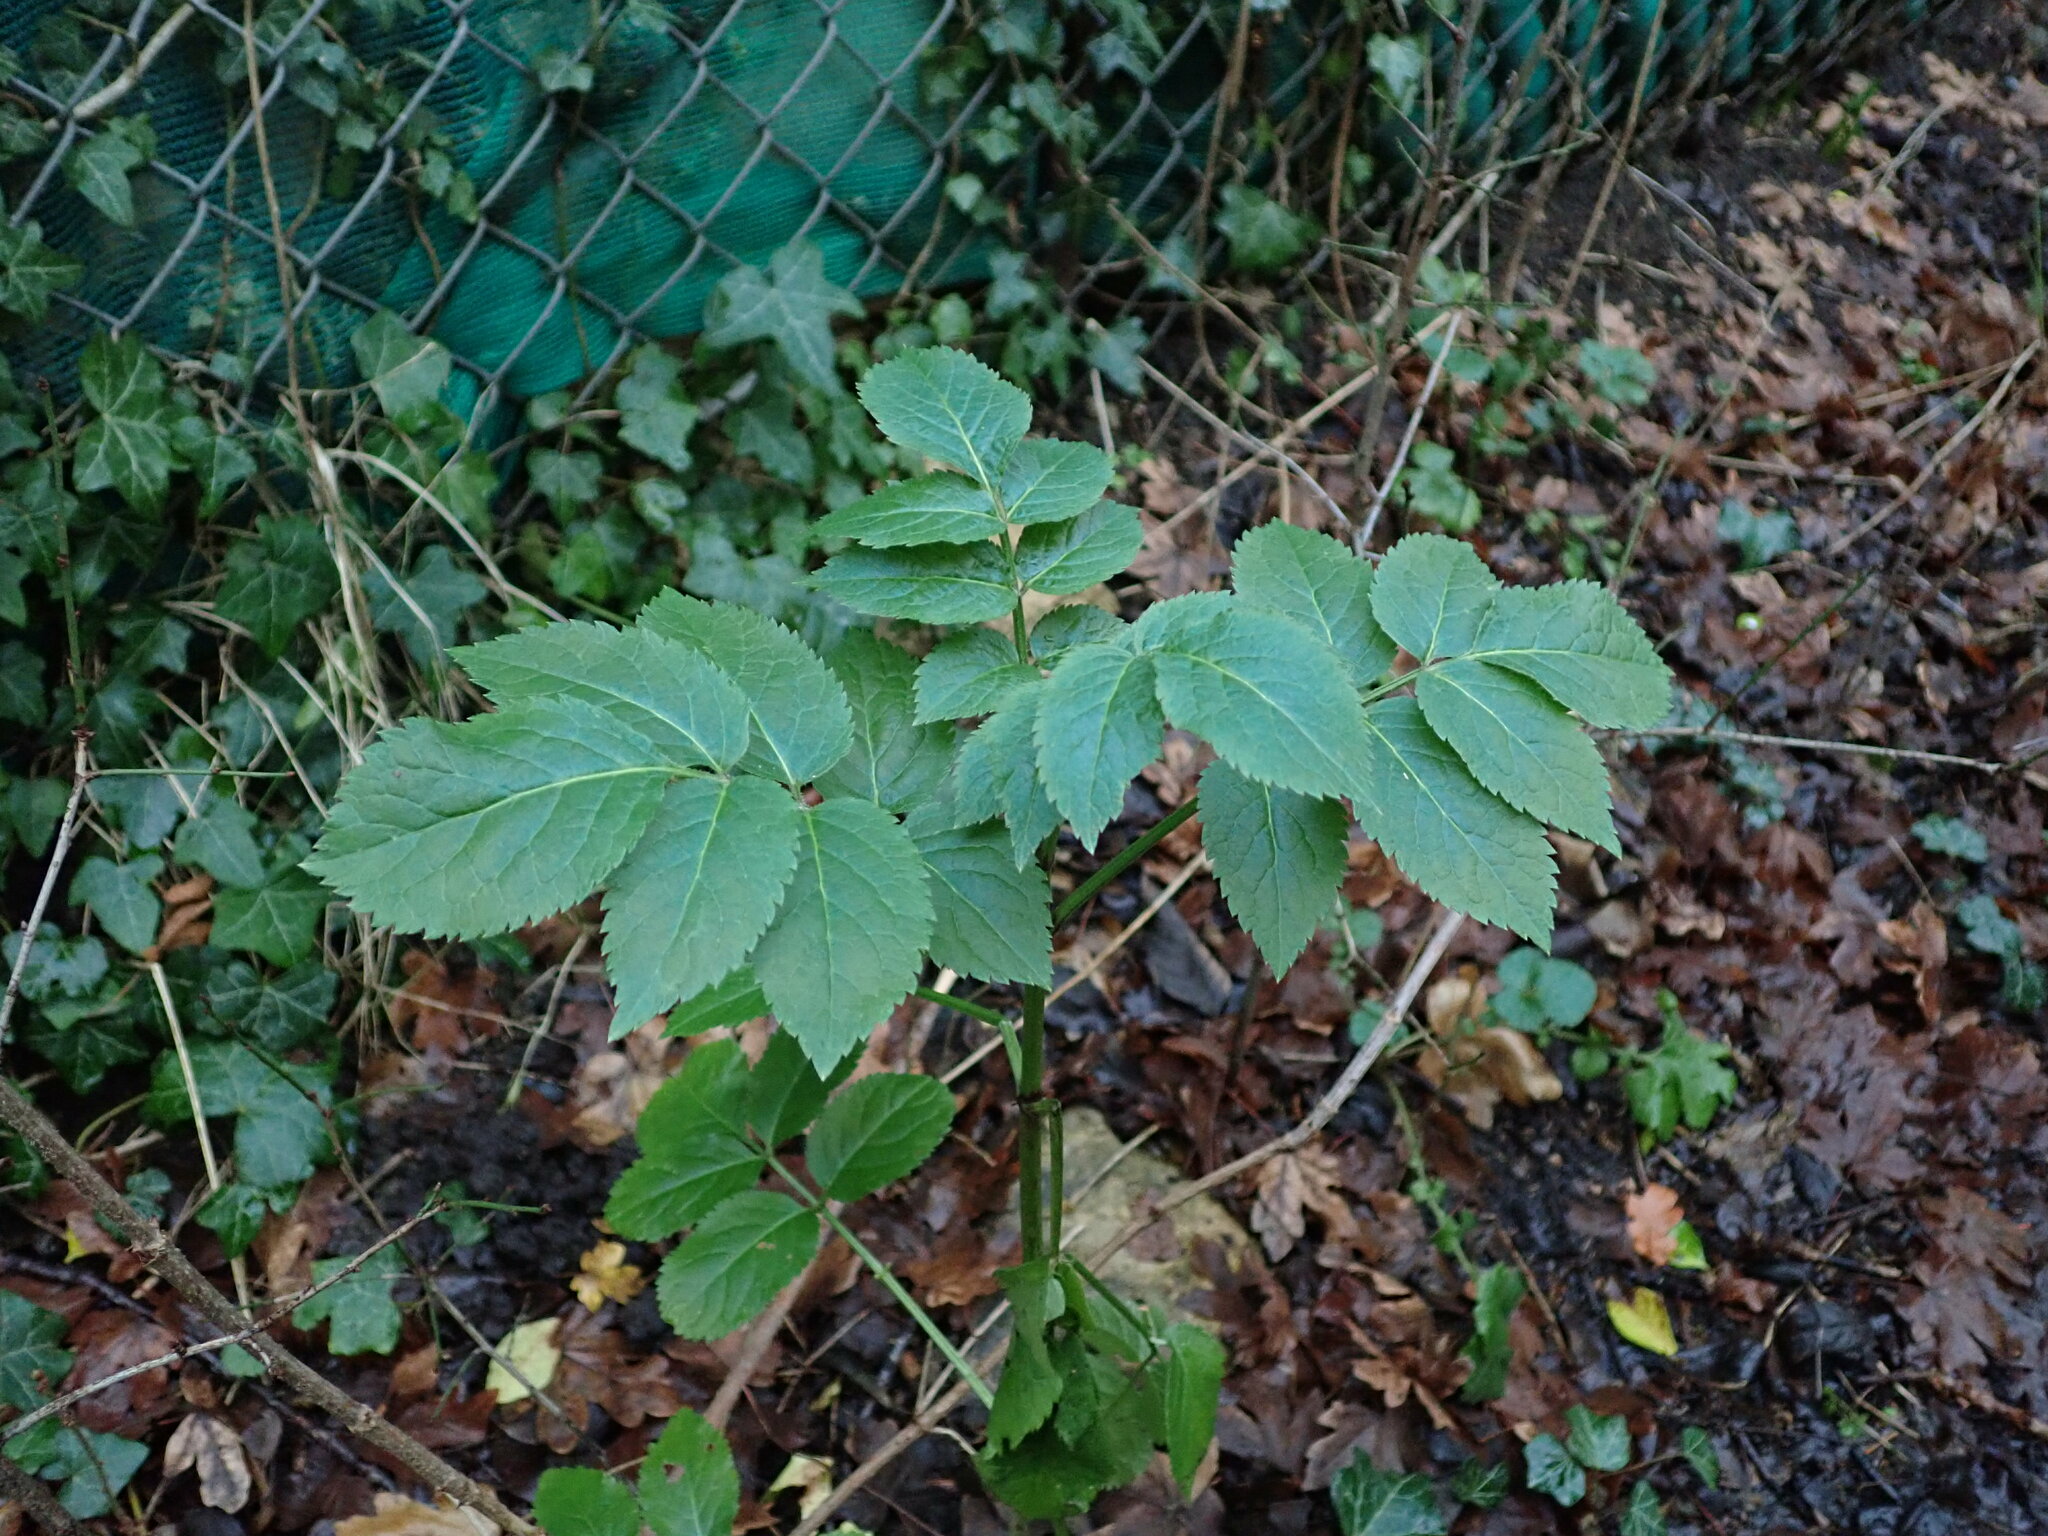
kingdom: Plantae
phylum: Tracheophyta
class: Magnoliopsida
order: Dipsacales
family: Viburnaceae
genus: Sambucus
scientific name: Sambucus nigra
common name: Elder
